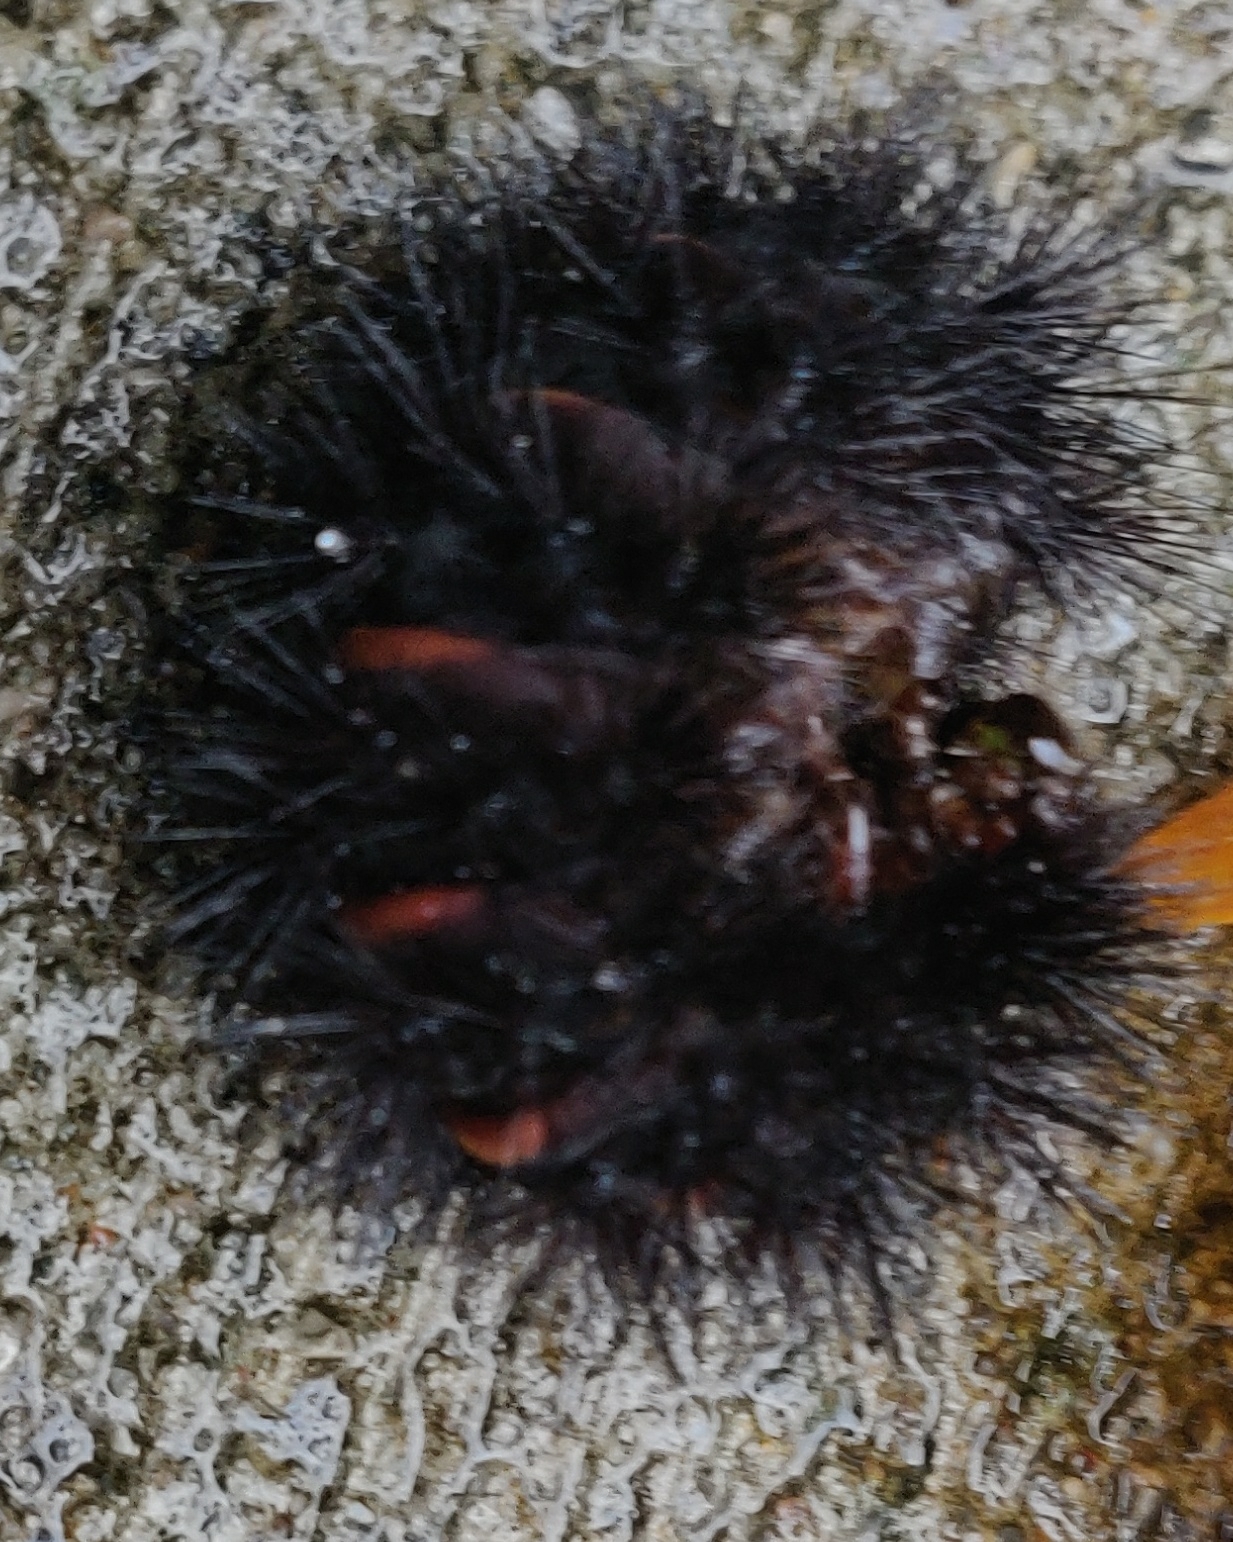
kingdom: Animalia
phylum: Arthropoda
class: Insecta
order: Lepidoptera
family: Erebidae
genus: Hypercompe
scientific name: Hypercompe scribonia
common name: Giant leopard moth
